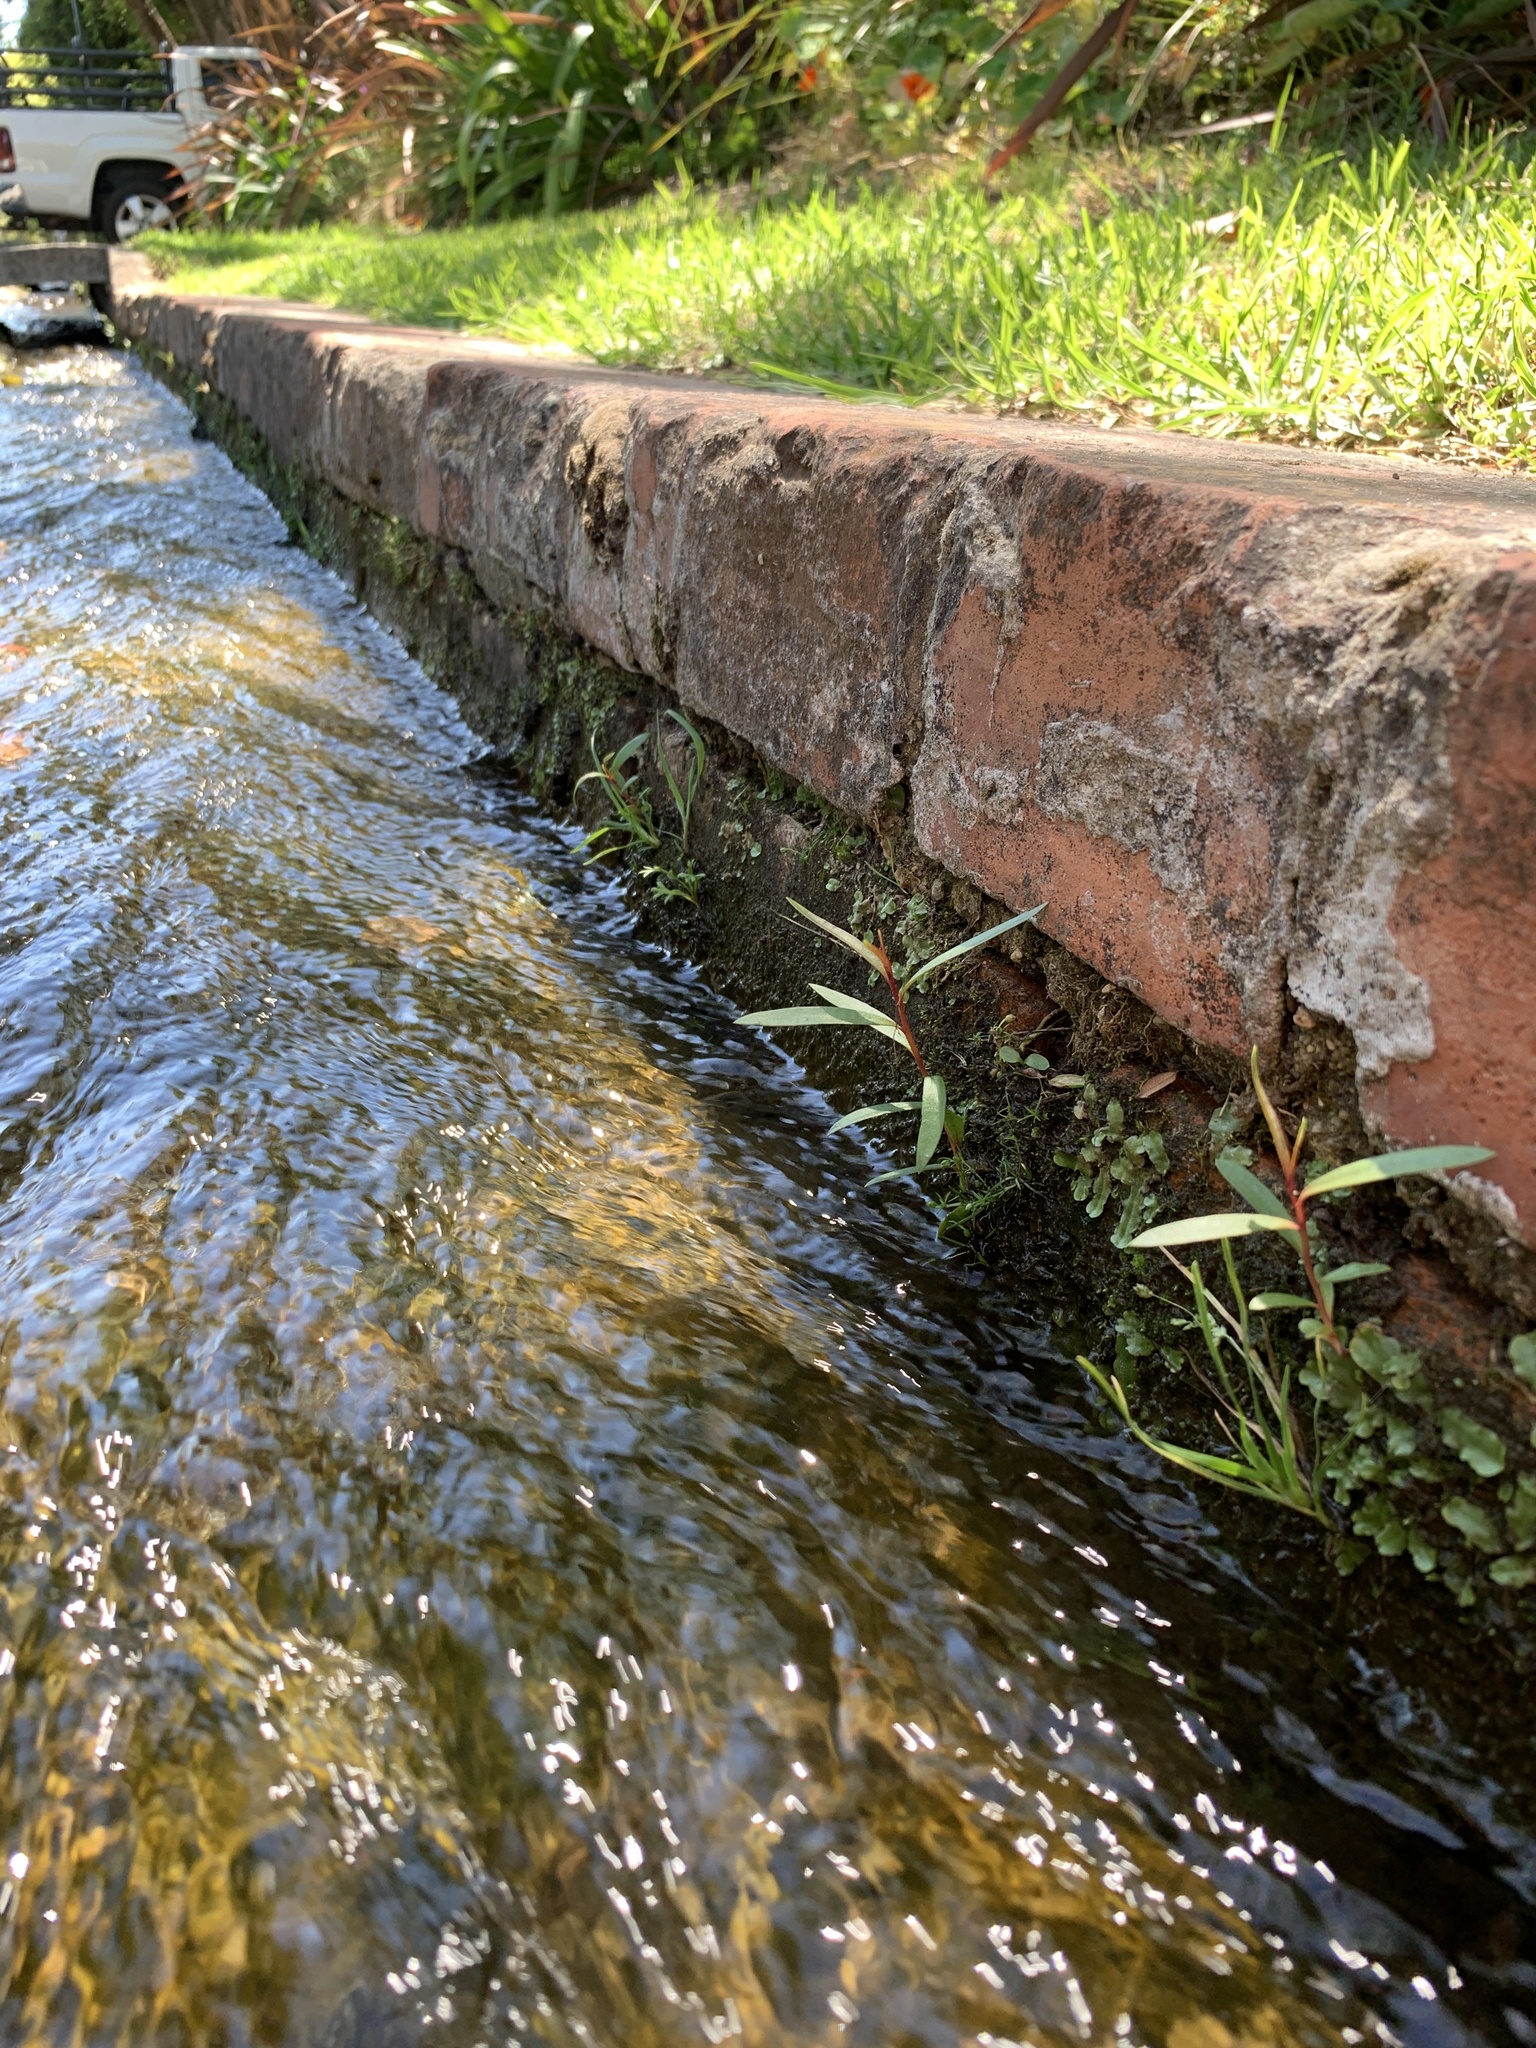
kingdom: Plantae
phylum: Tracheophyta
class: Magnoliopsida
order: Myrtales
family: Myrtaceae
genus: Callistemon
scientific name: Callistemon viminalis
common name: Drooping bottlebrush
